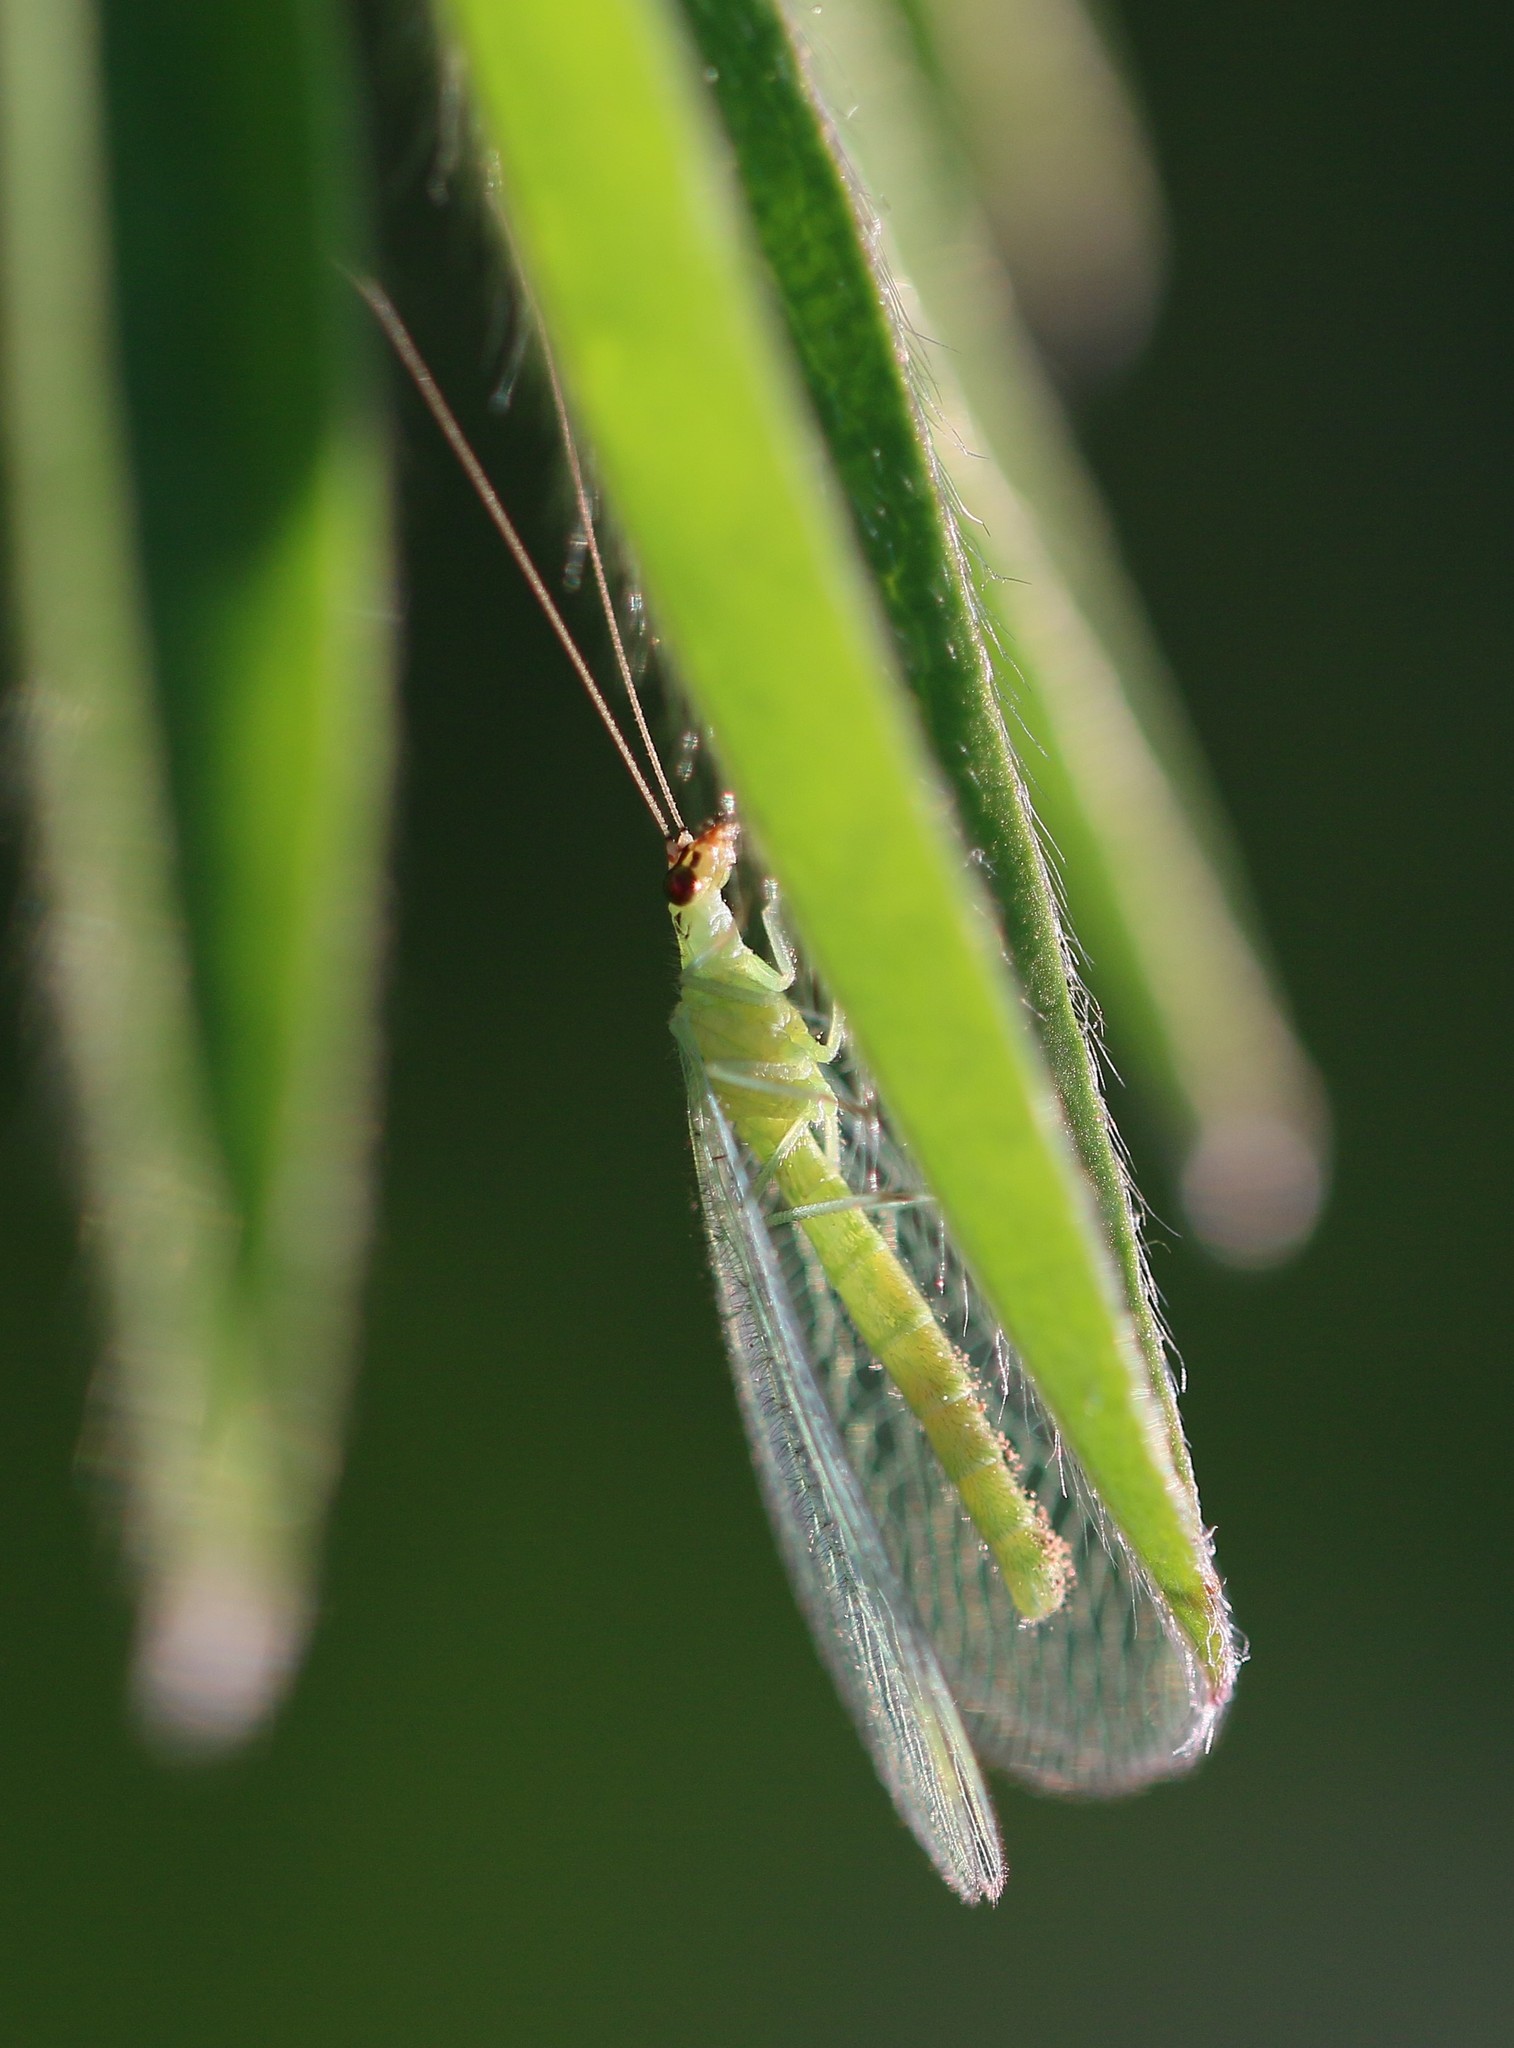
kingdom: Animalia
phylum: Arthropoda
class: Insecta
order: Neuroptera
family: Chrysopidae
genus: Chrysopa
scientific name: Chrysopa oculata
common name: Golden-eyed lacewing
